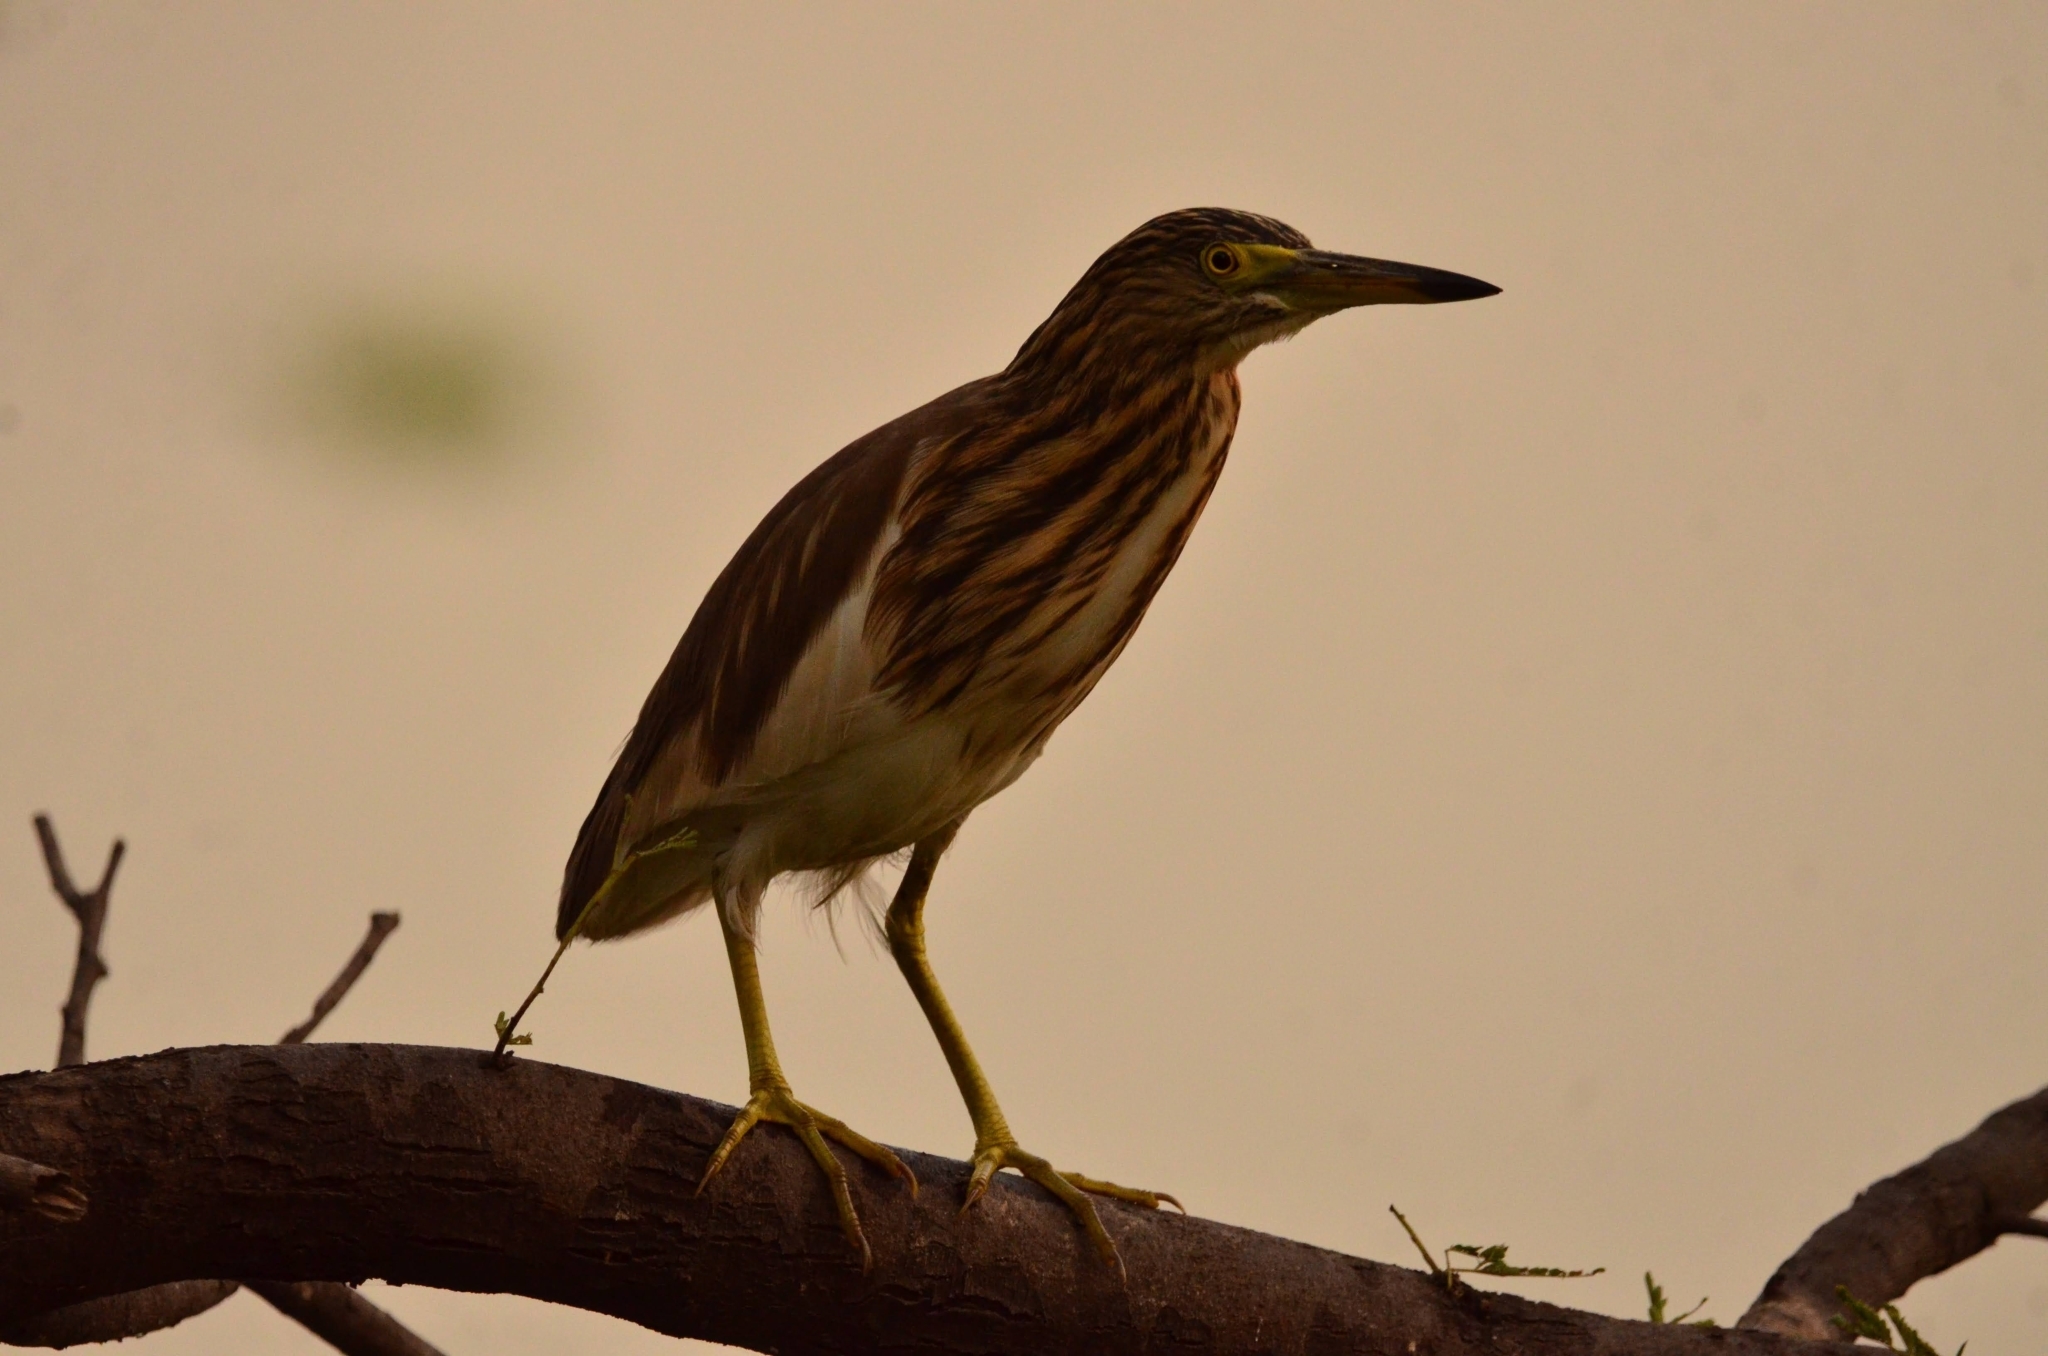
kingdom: Animalia
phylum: Chordata
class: Aves
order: Pelecaniformes
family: Ardeidae
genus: Ardeola
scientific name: Ardeola grayii
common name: Indian pond heron
